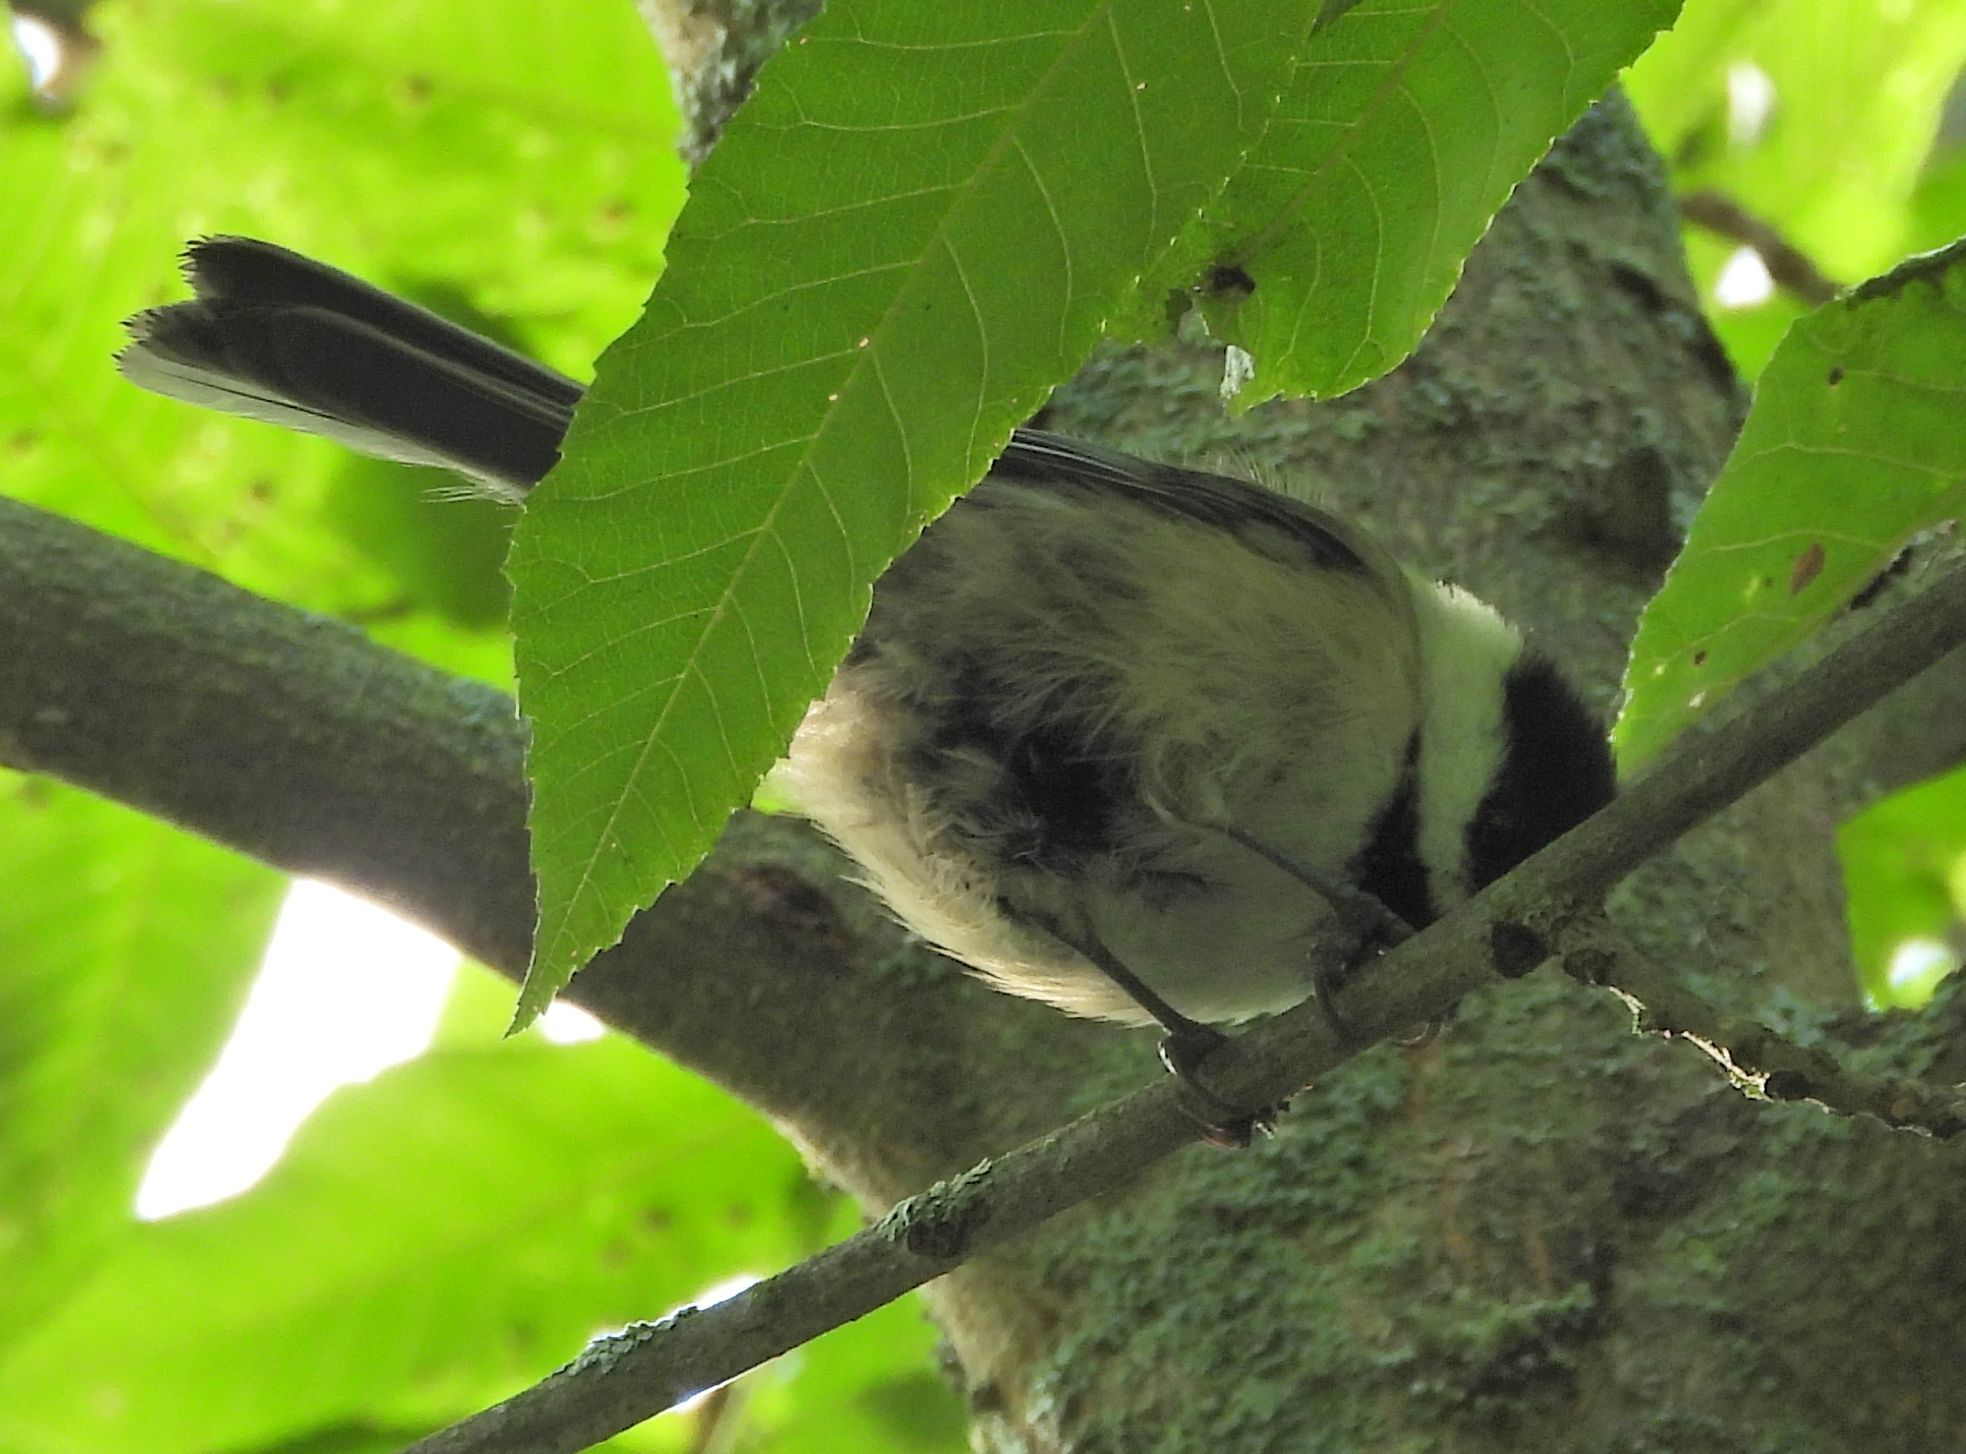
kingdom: Animalia
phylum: Chordata
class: Aves
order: Passeriformes
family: Paridae
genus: Poecile
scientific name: Poecile atricapillus
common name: Black-capped chickadee
